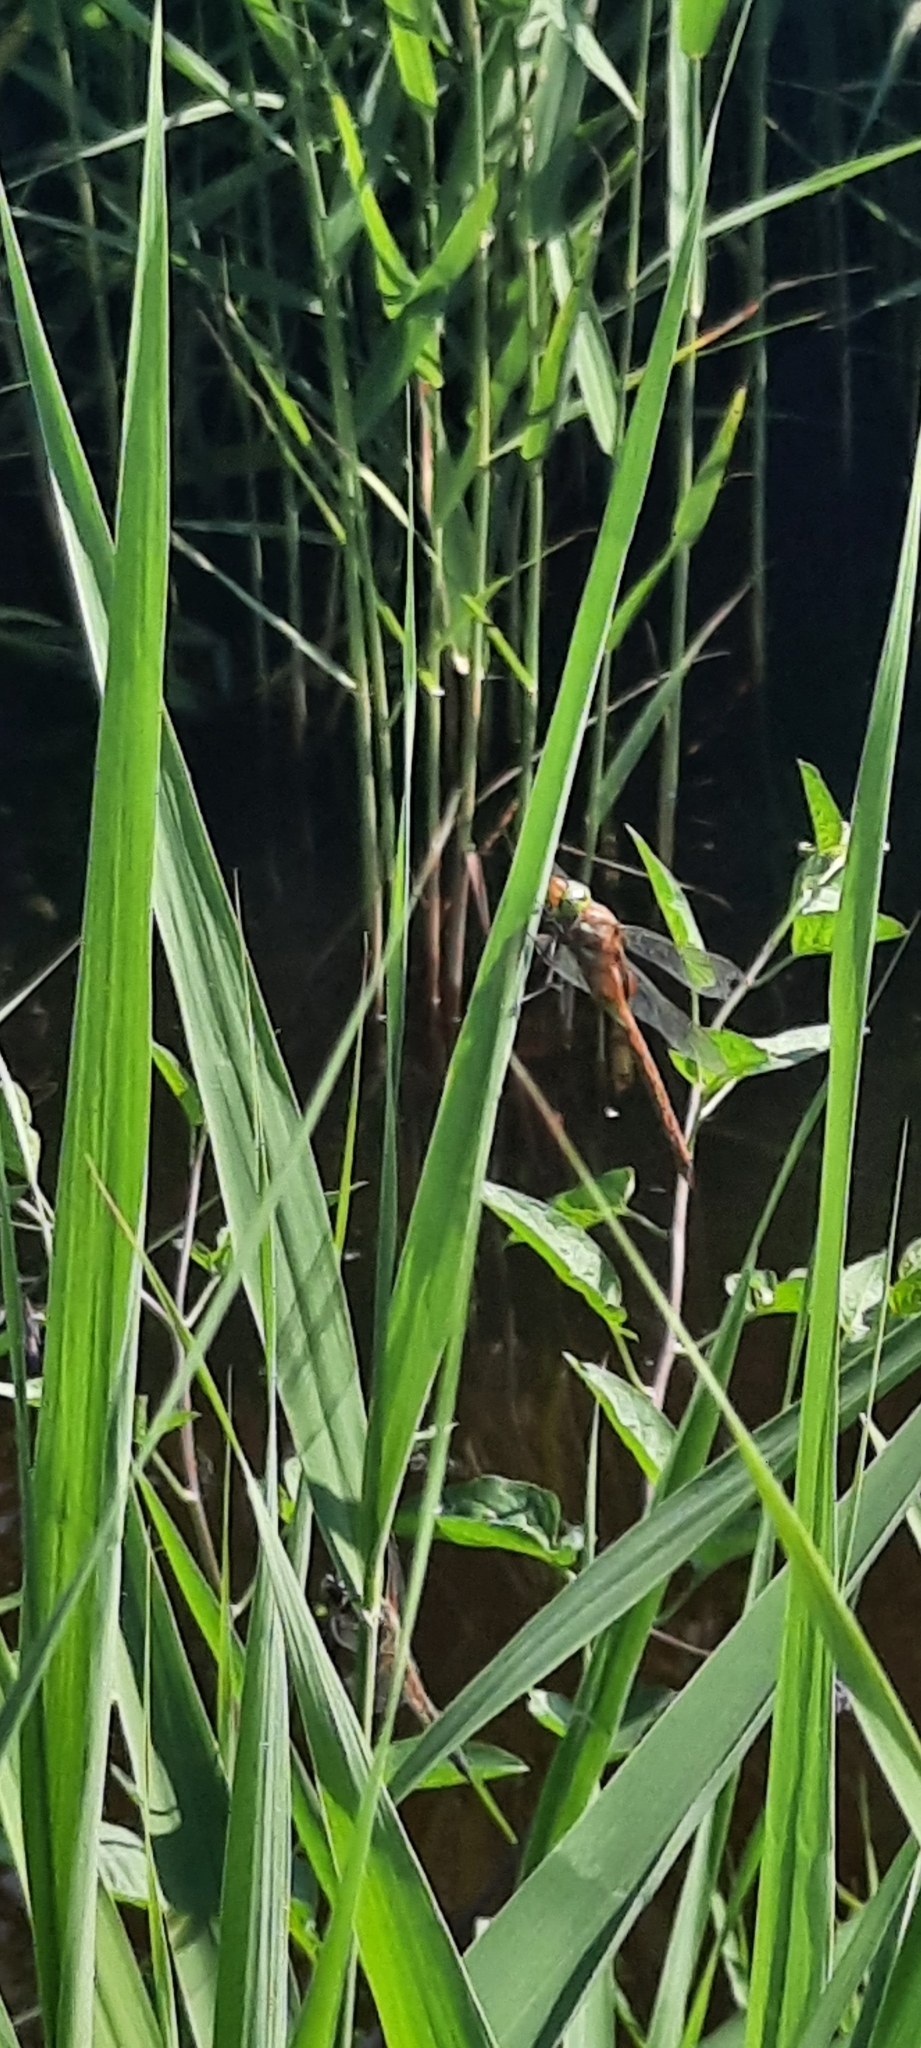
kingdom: Animalia
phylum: Arthropoda
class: Insecta
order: Odonata
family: Aeshnidae
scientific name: Aeshnidae
